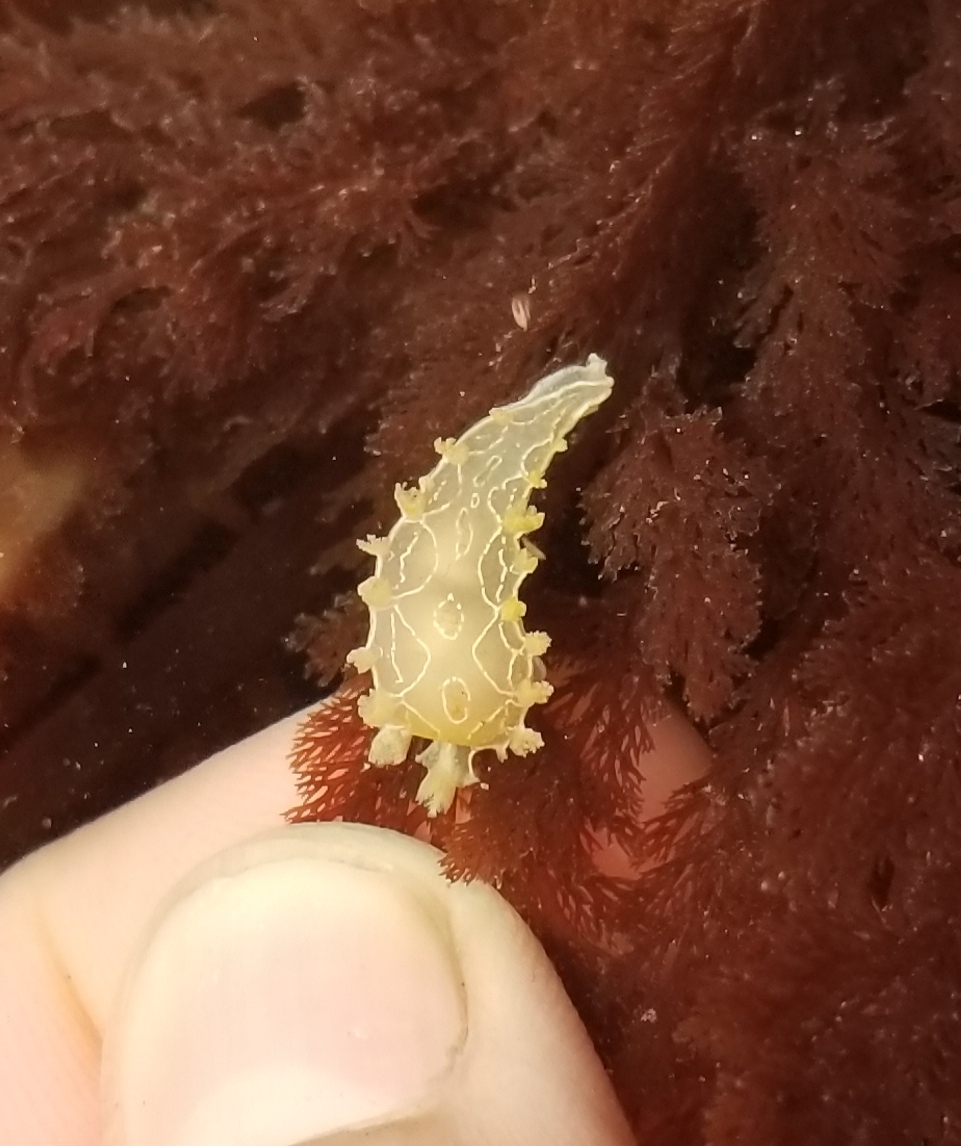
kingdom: Animalia
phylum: Mollusca
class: Gastropoda
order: Nudibranchia
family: Tritoniidae
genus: Tritonia
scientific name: Tritonia festiva
